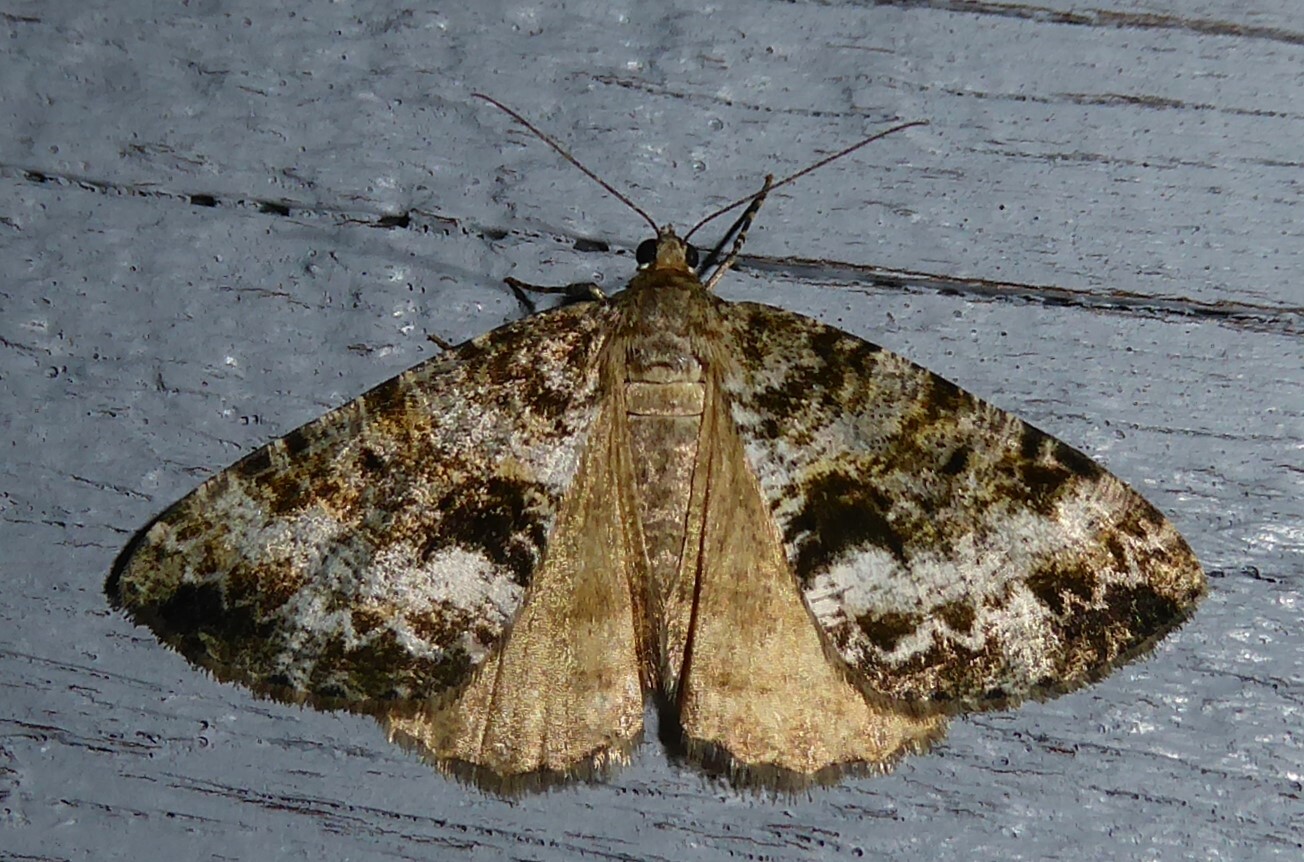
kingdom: Animalia
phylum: Arthropoda
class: Insecta
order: Lepidoptera
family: Geometridae
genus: Pseudocoremia
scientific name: Pseudocoremia lactiflua
